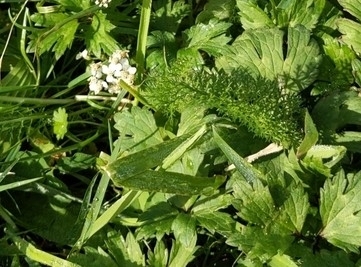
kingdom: Plantae
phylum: Tracheophyta
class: Magnoliopsida
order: Asterales
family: Asteraceae
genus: Achillea
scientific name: Achillea millefolium
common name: Yarrow
